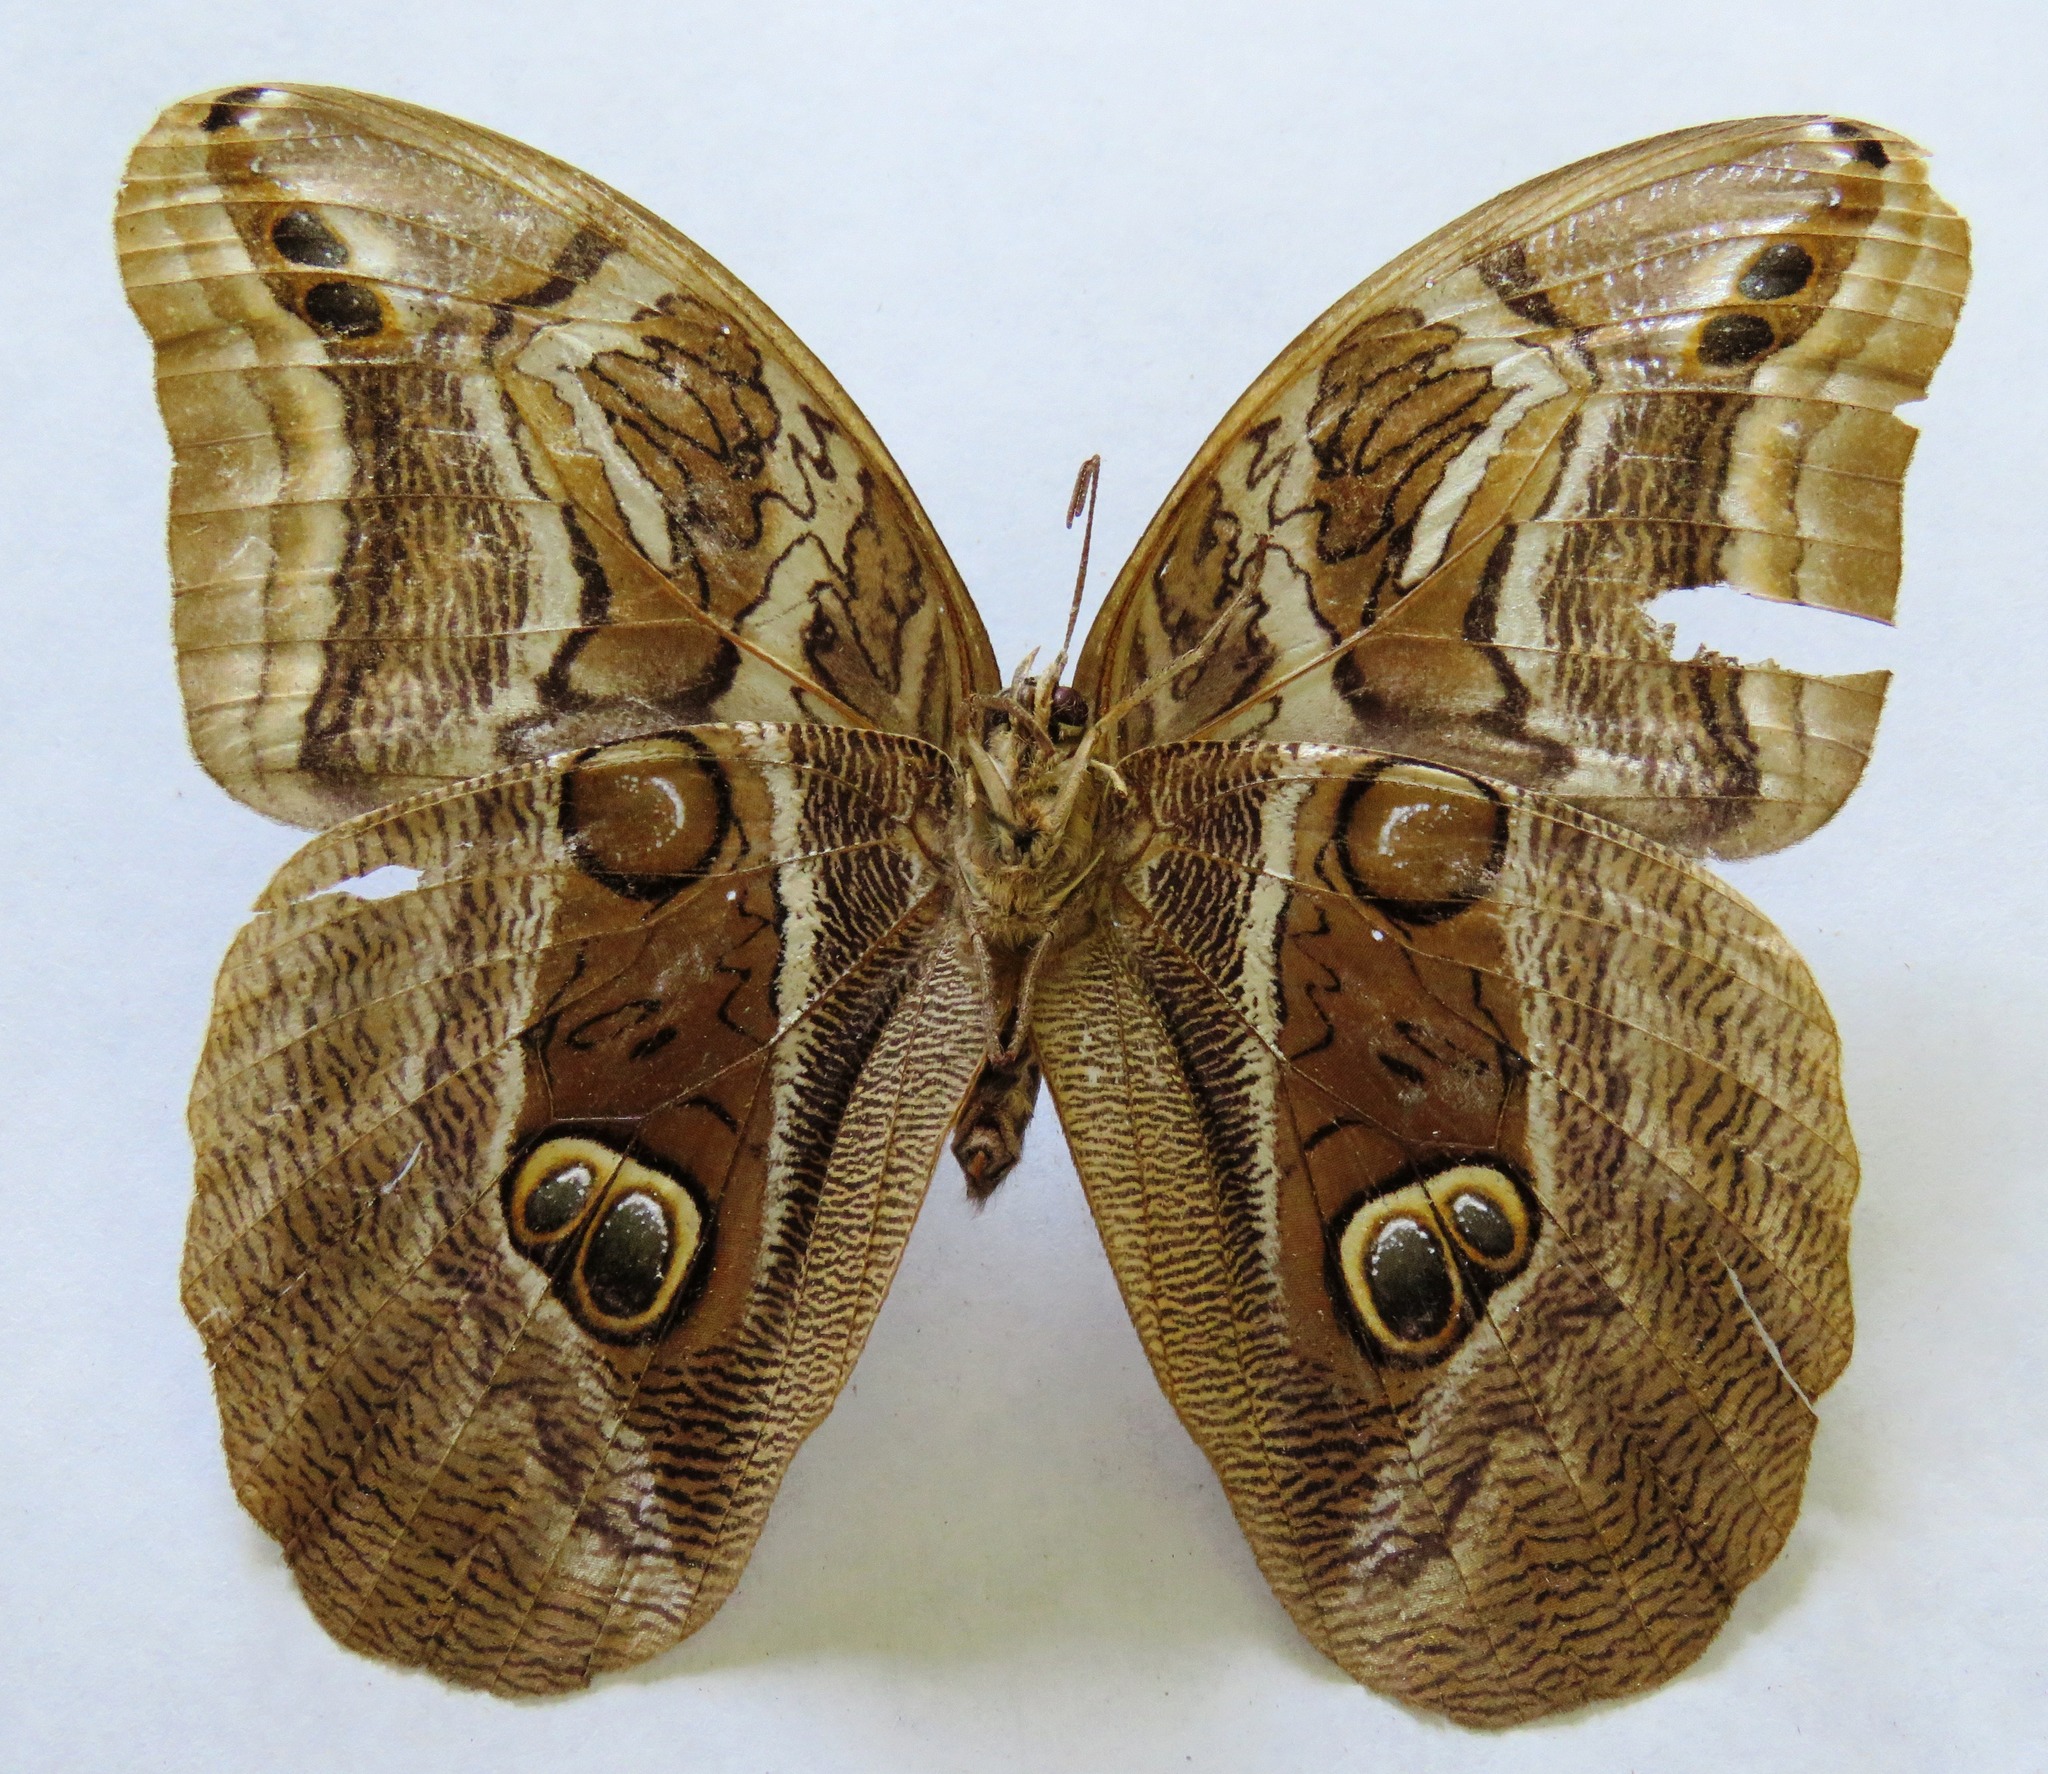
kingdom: Animalia
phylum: Arthropoda
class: Insecta
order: Lepidoptera
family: Nymphalidae
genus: Eryphanis
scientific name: Eryphanis aesacus
